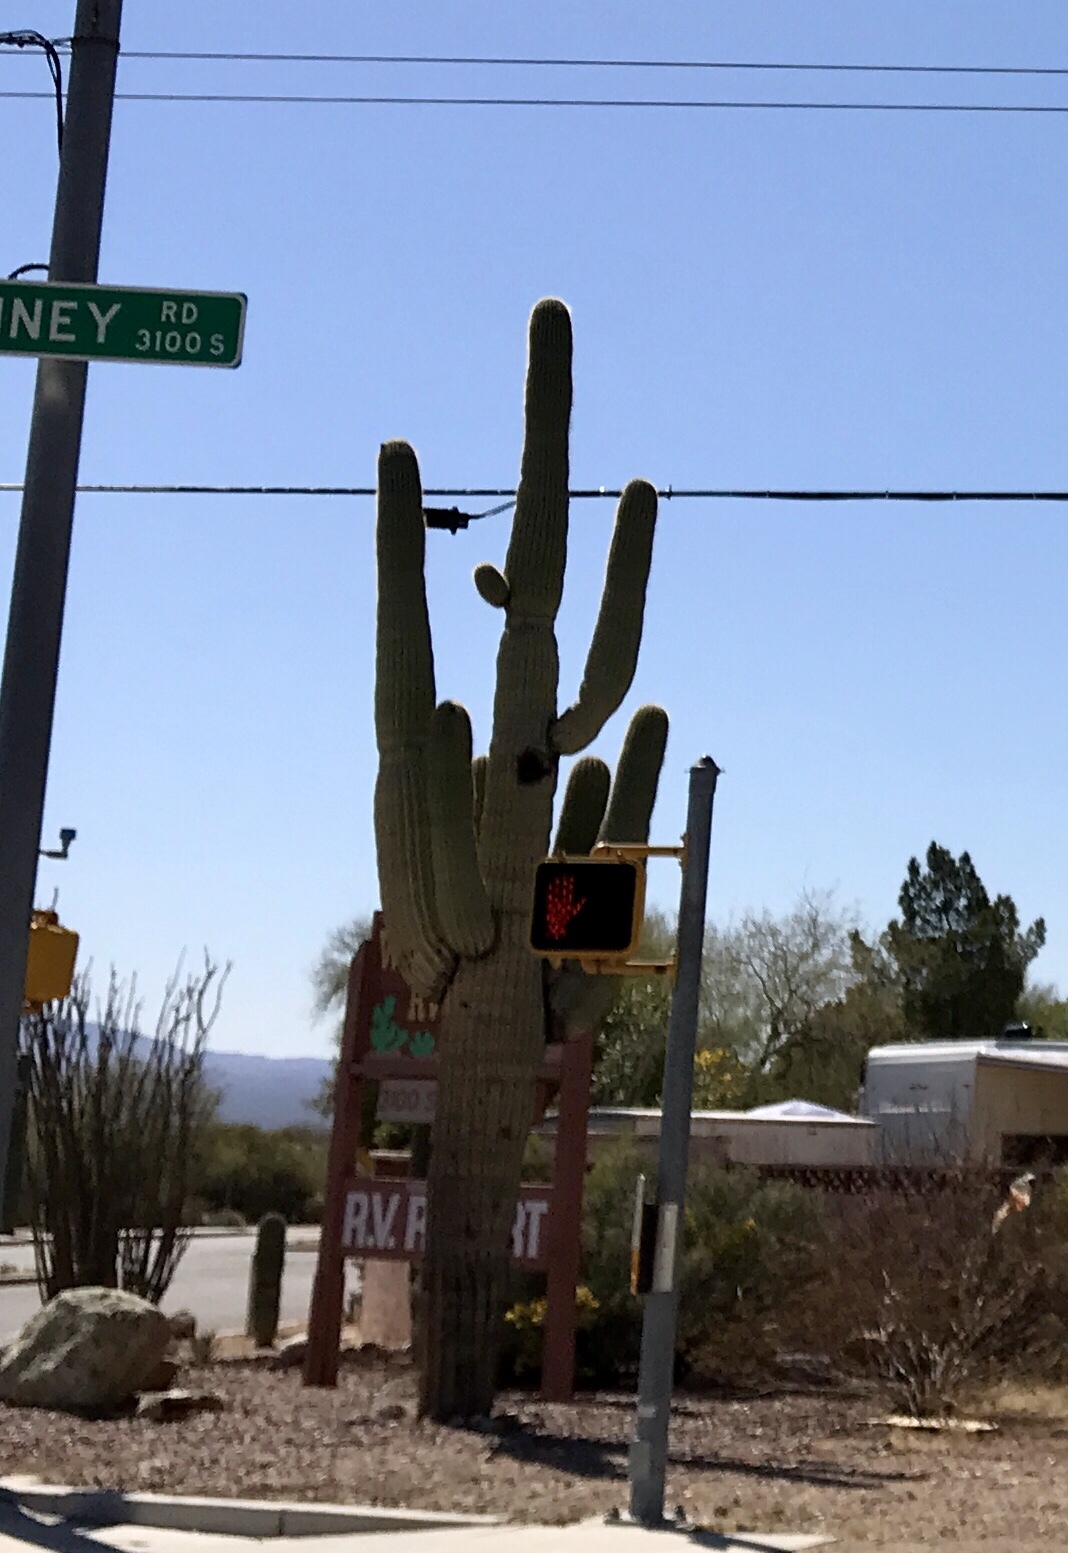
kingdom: Plantae
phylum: Tracheophyta
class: Magnoliopsida
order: Caryophyllales
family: Cactaceae
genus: Carnegiea
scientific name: Carnegiea gigantea
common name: Saguaro
